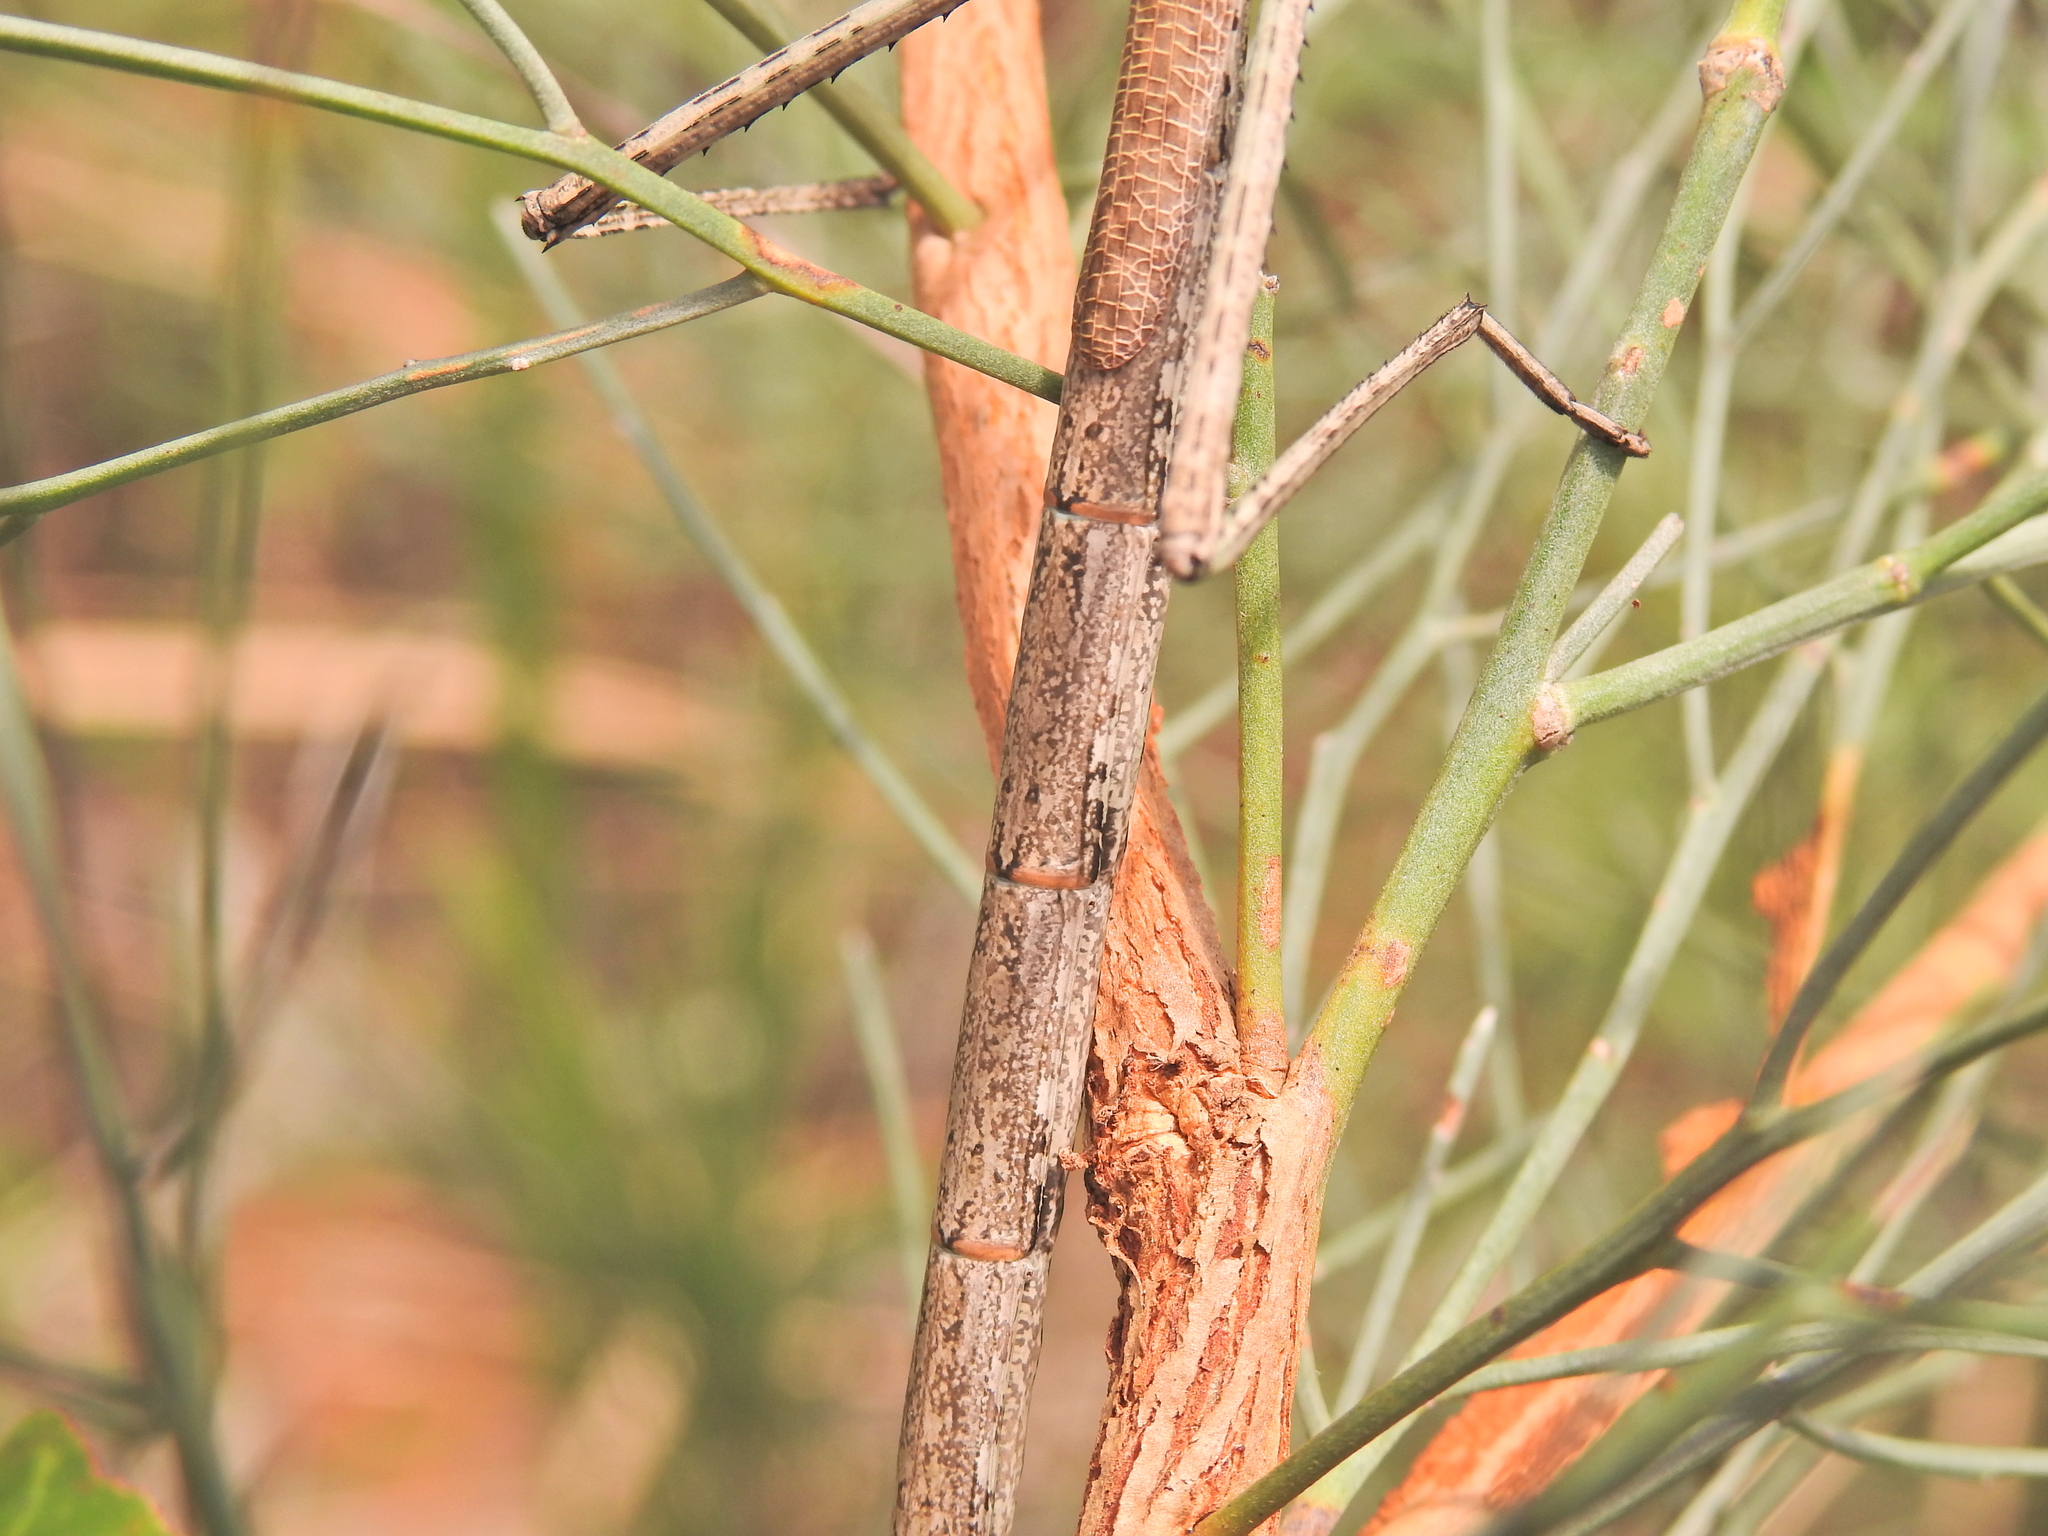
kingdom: Animalia
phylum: Arthropoda
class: Insecta
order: Phasmida
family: Phasmatidae
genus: Anchiale
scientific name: Anchiale austrotessulata
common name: Tessellated stick-insect
